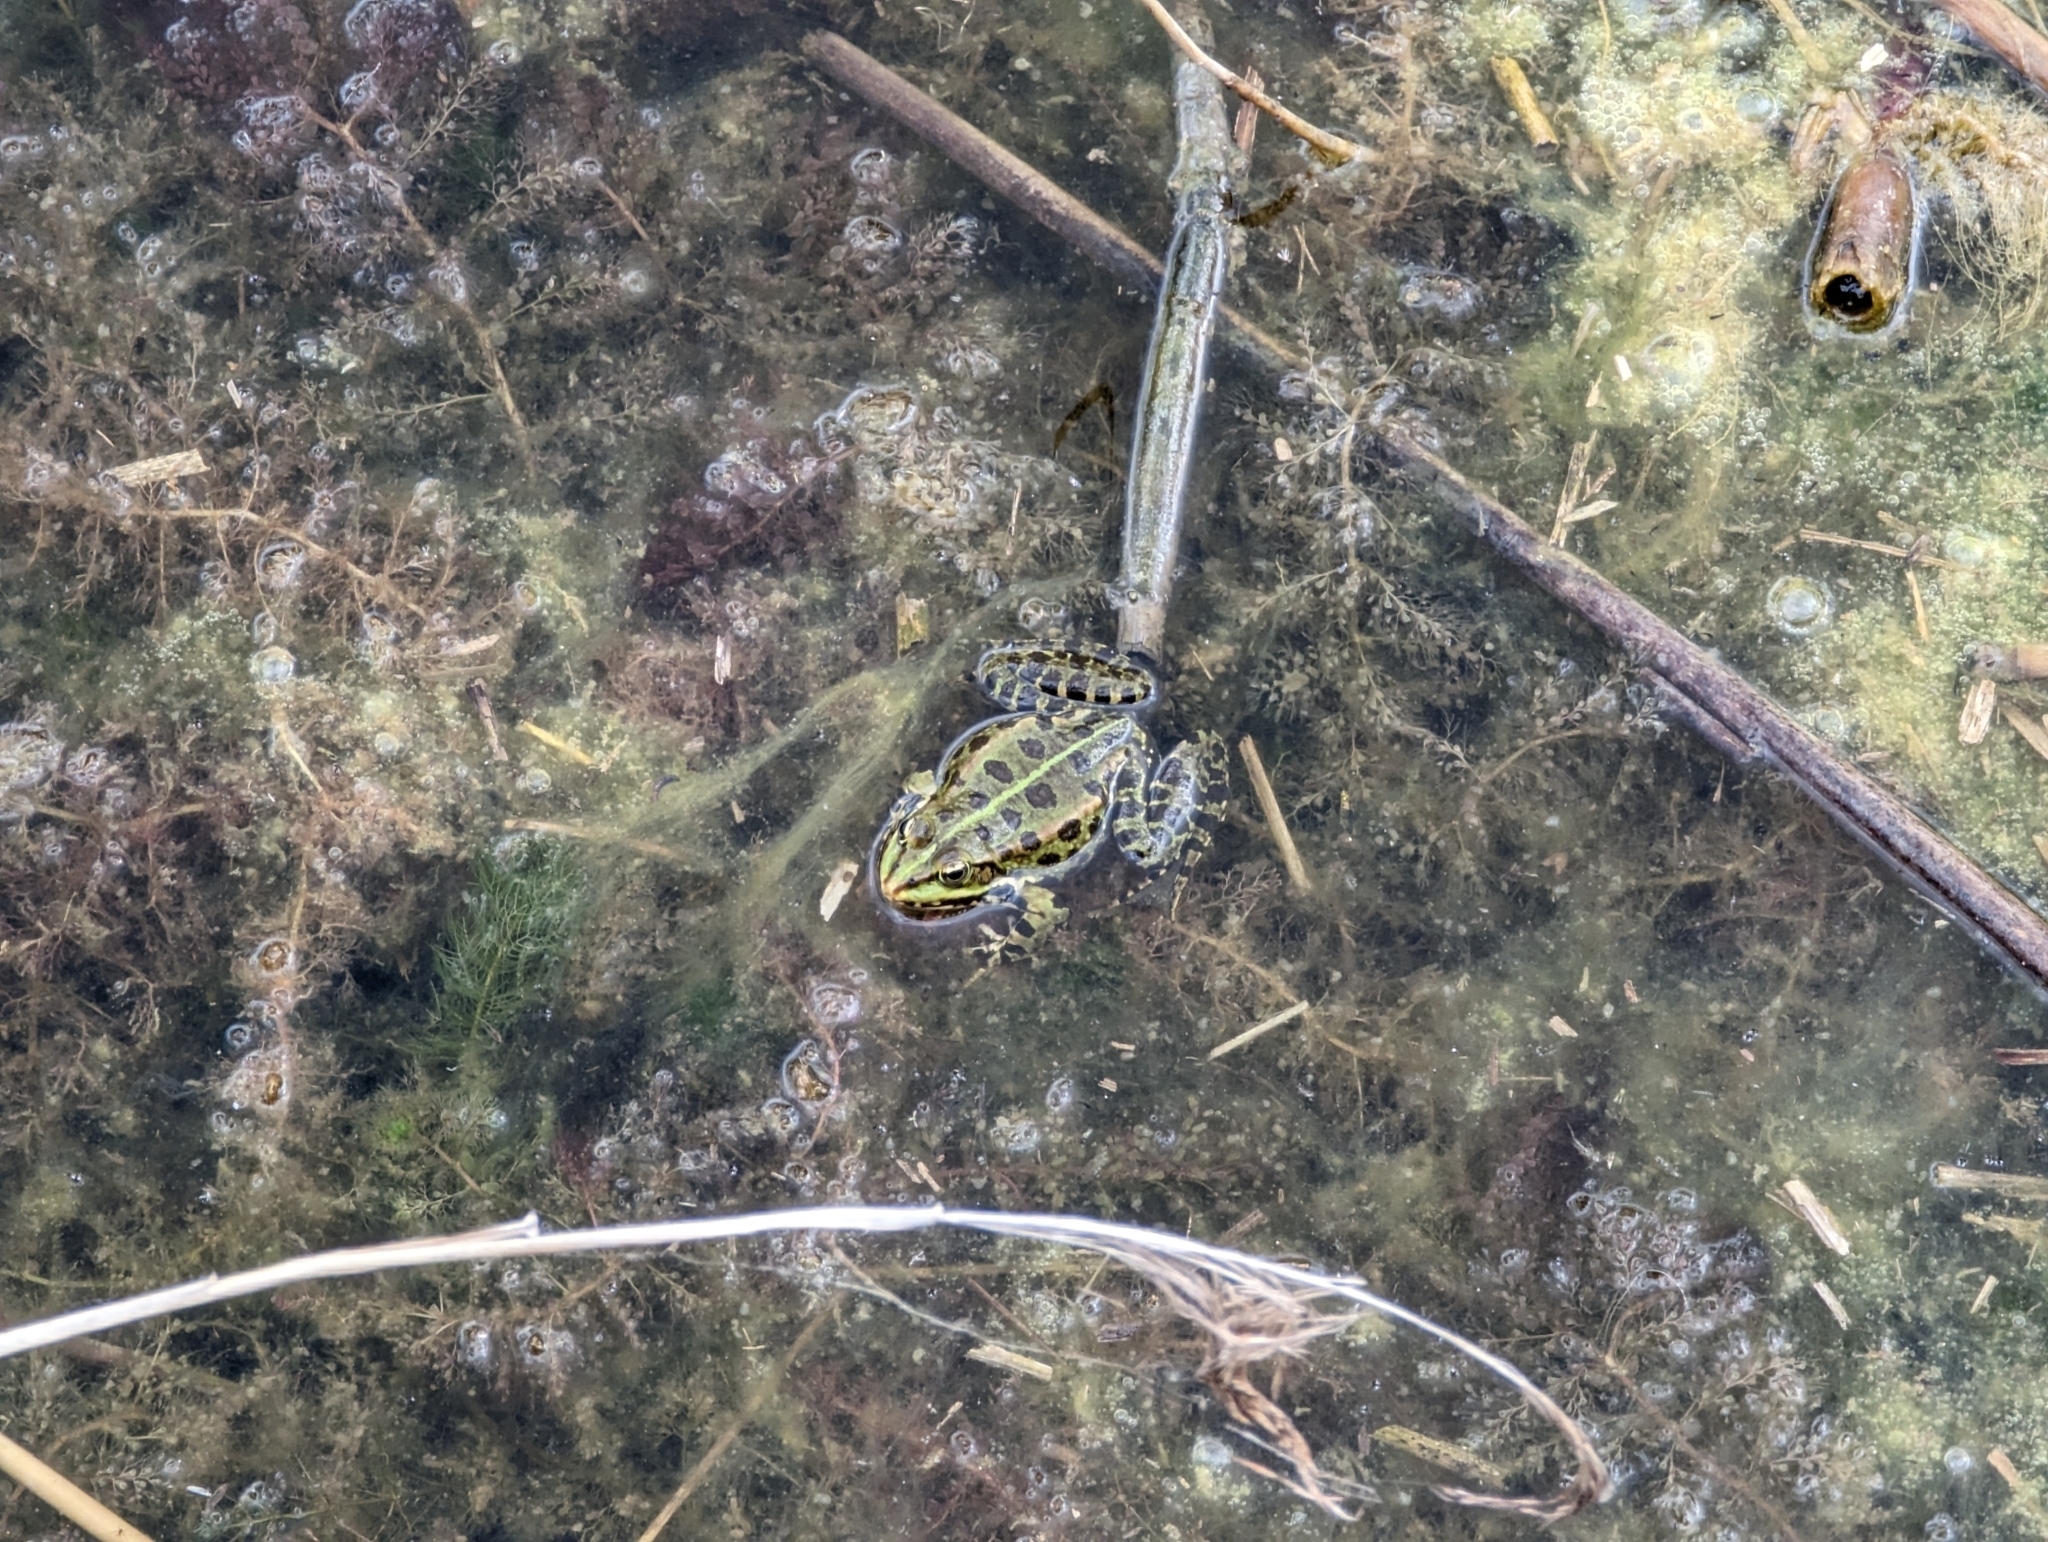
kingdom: Animalia
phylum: Chordata
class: Amphibia
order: Anura
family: Ranidae
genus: Pelophylax
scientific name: Pelophylax
